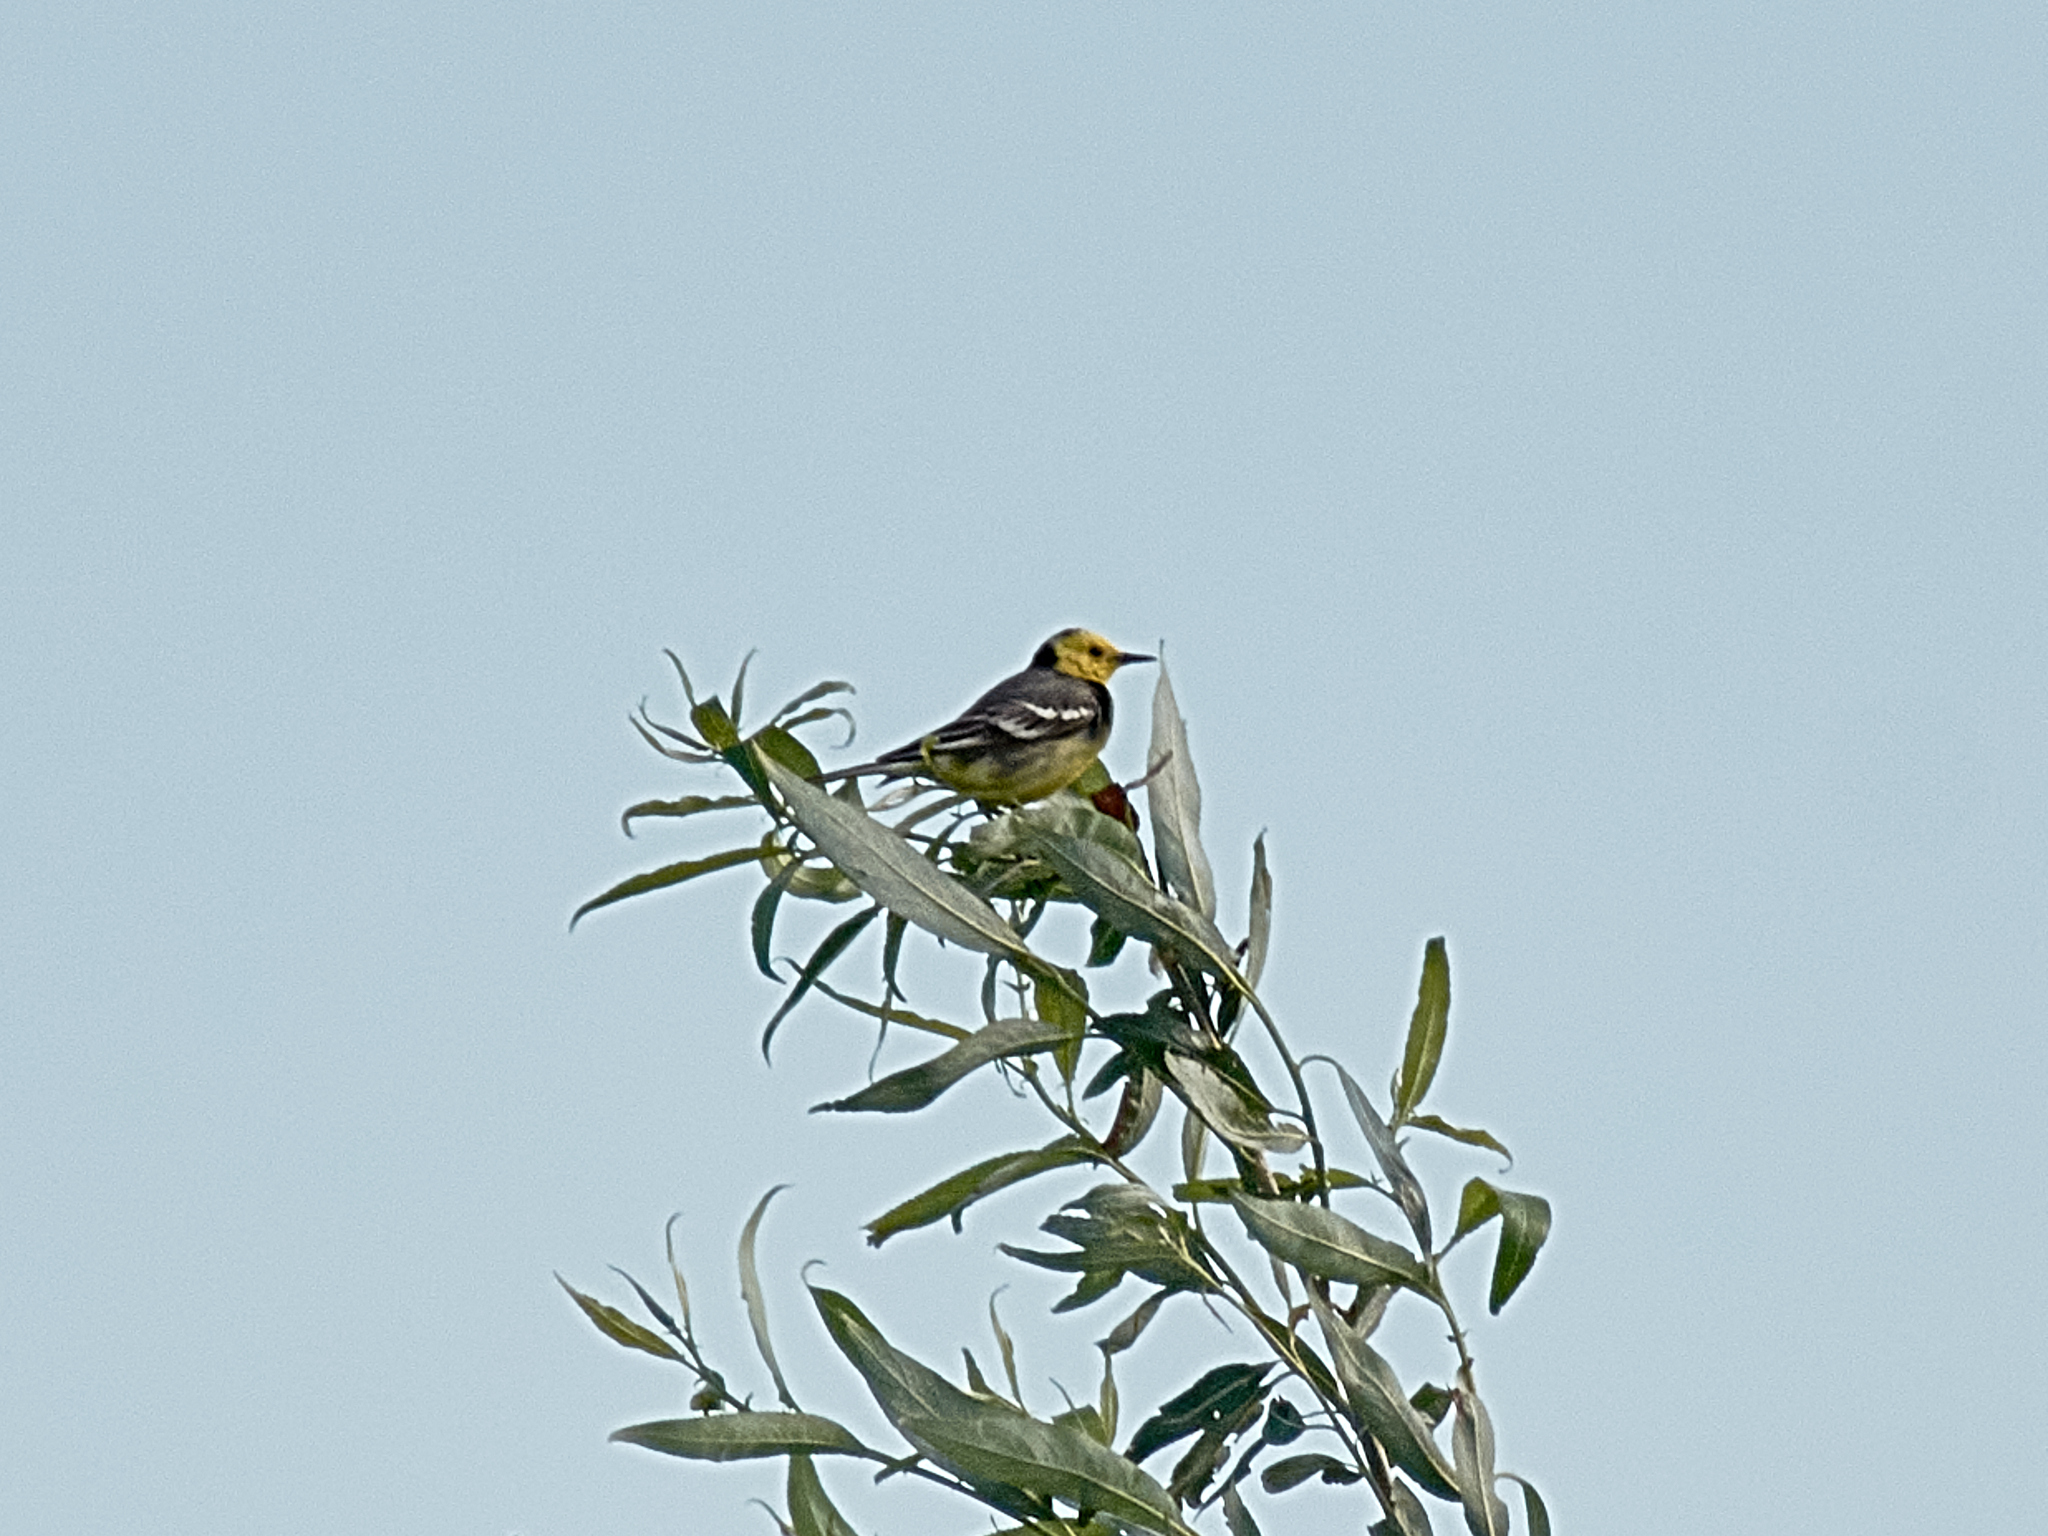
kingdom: Animalia
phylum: Chordata
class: Aves
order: Passeriformes
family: Motacillidae
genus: Motacilla
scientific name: Motacilla citreola
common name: Citrine wagtail
